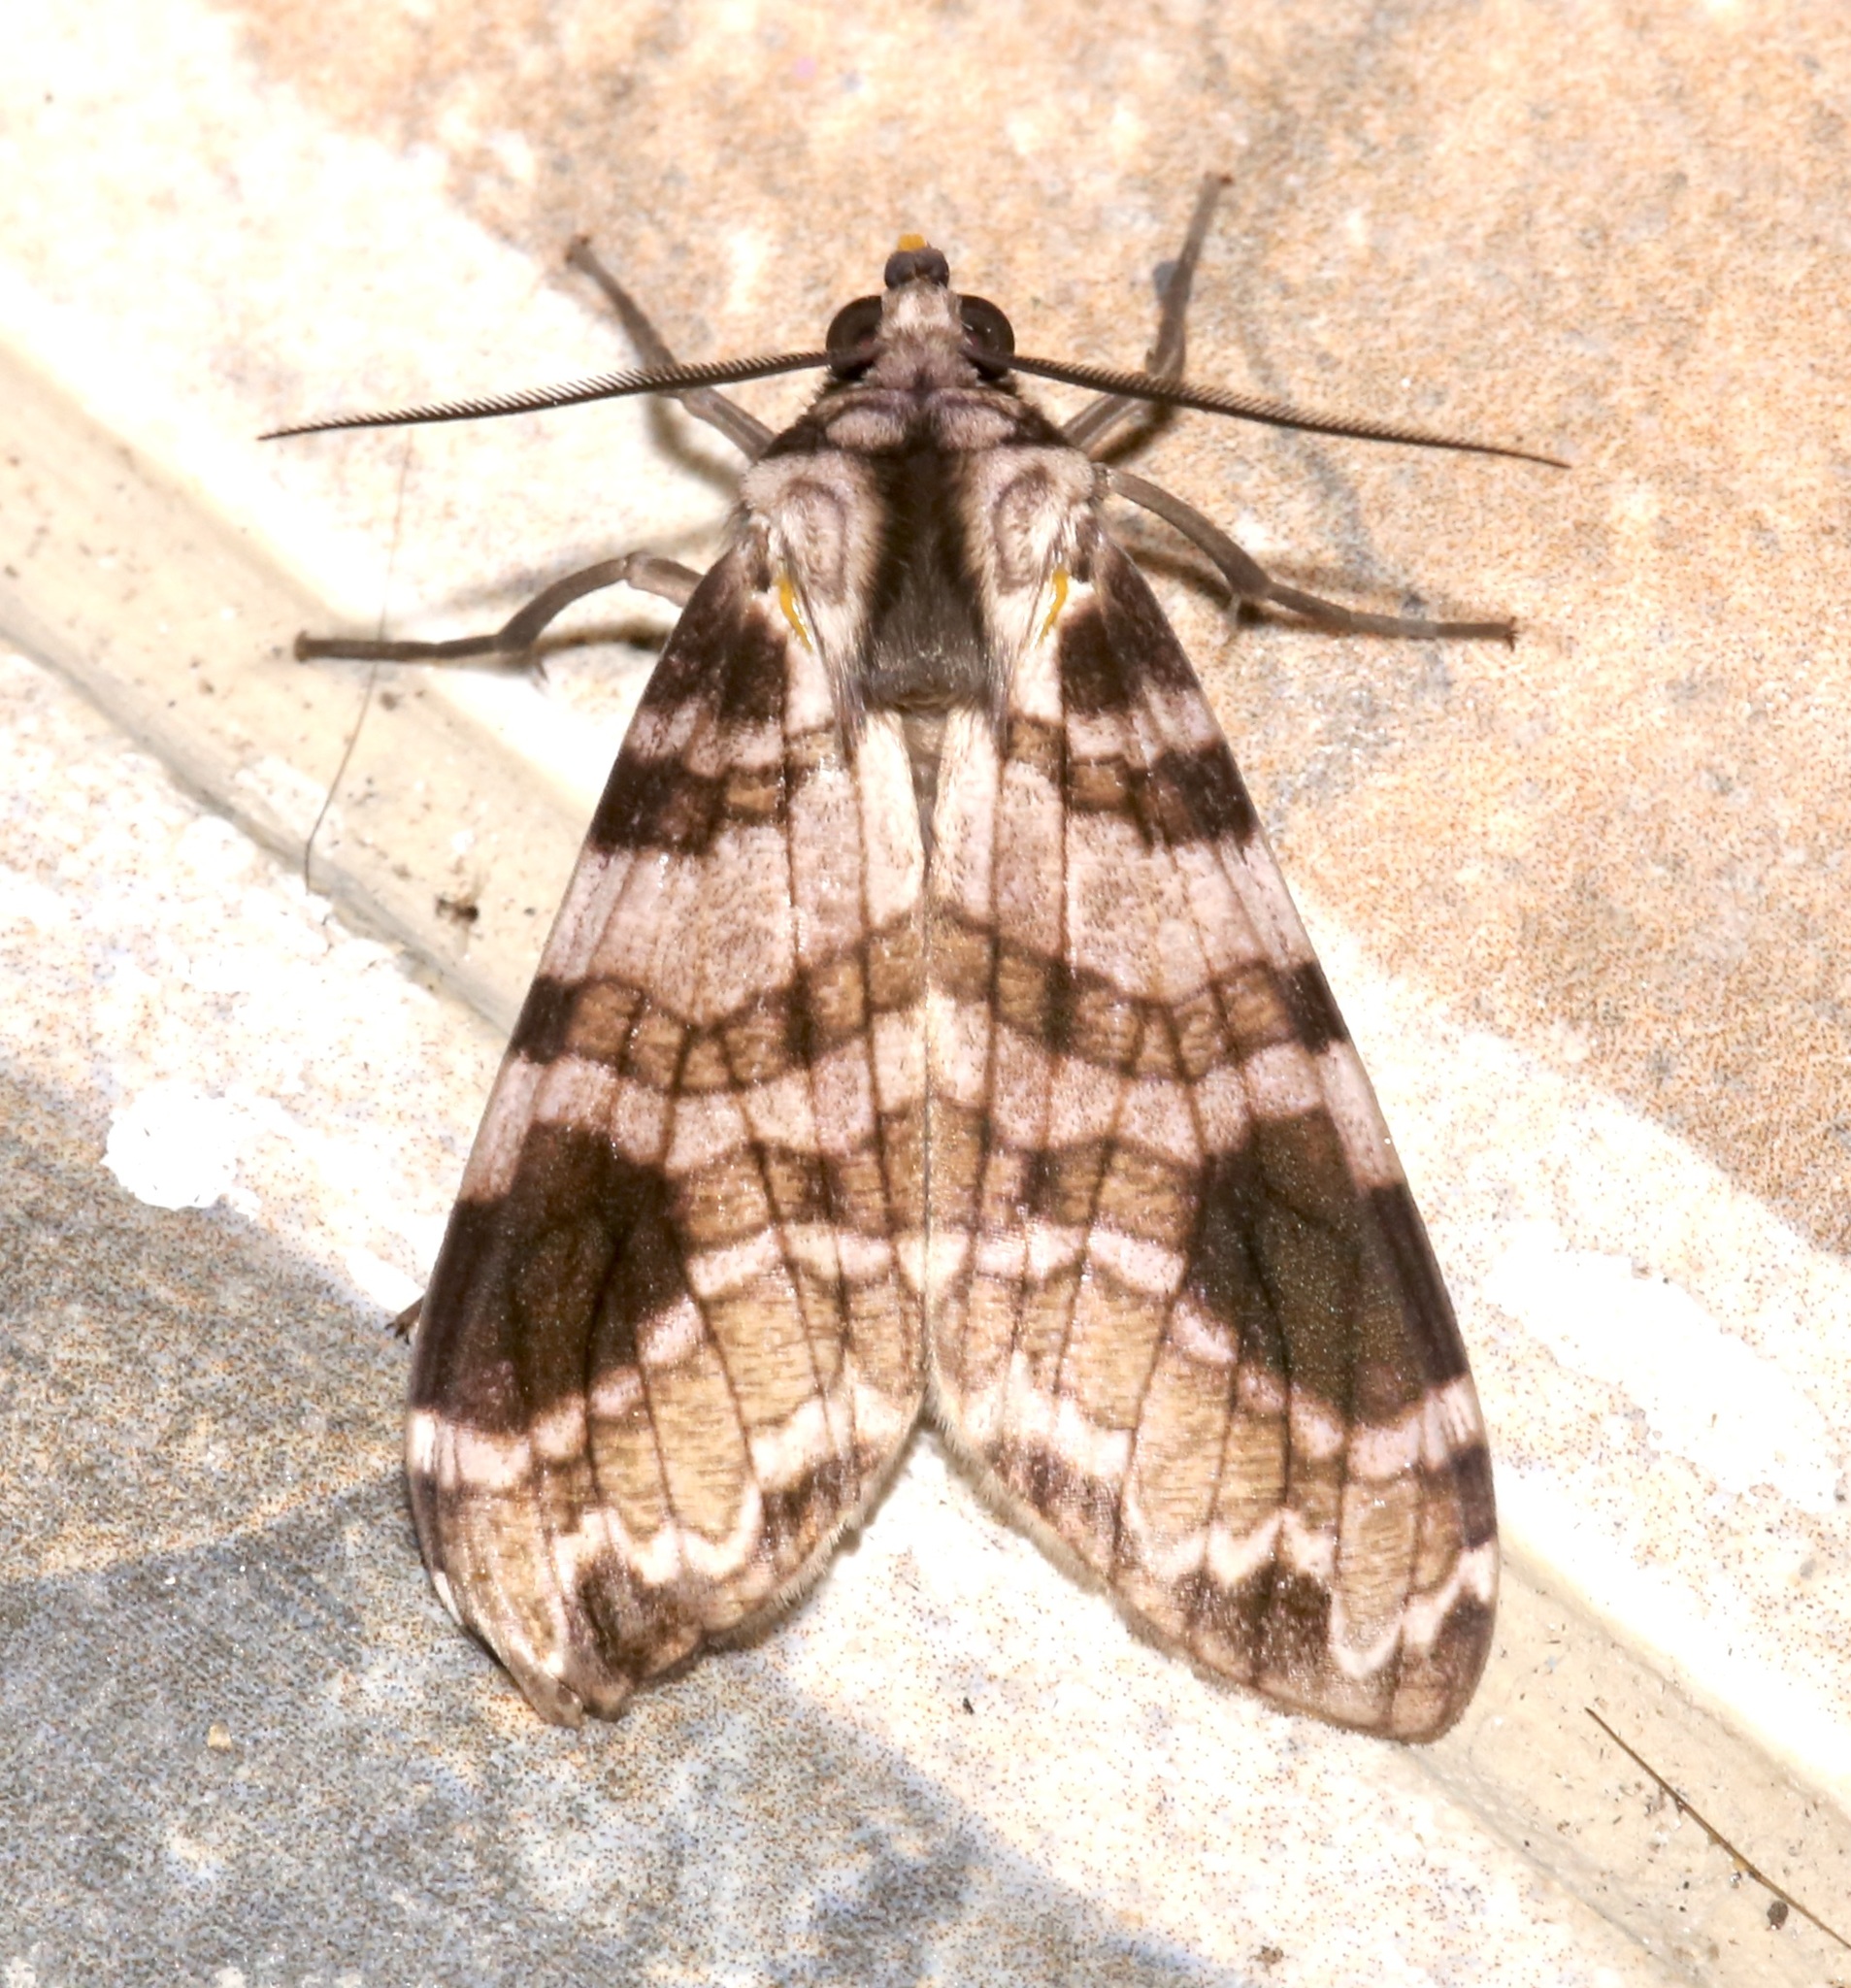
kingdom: Animalia
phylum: Arthropoda
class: Insecta
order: Lepidoptera
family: Erebidae
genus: Elysius
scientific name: Elysius melanoplaga
